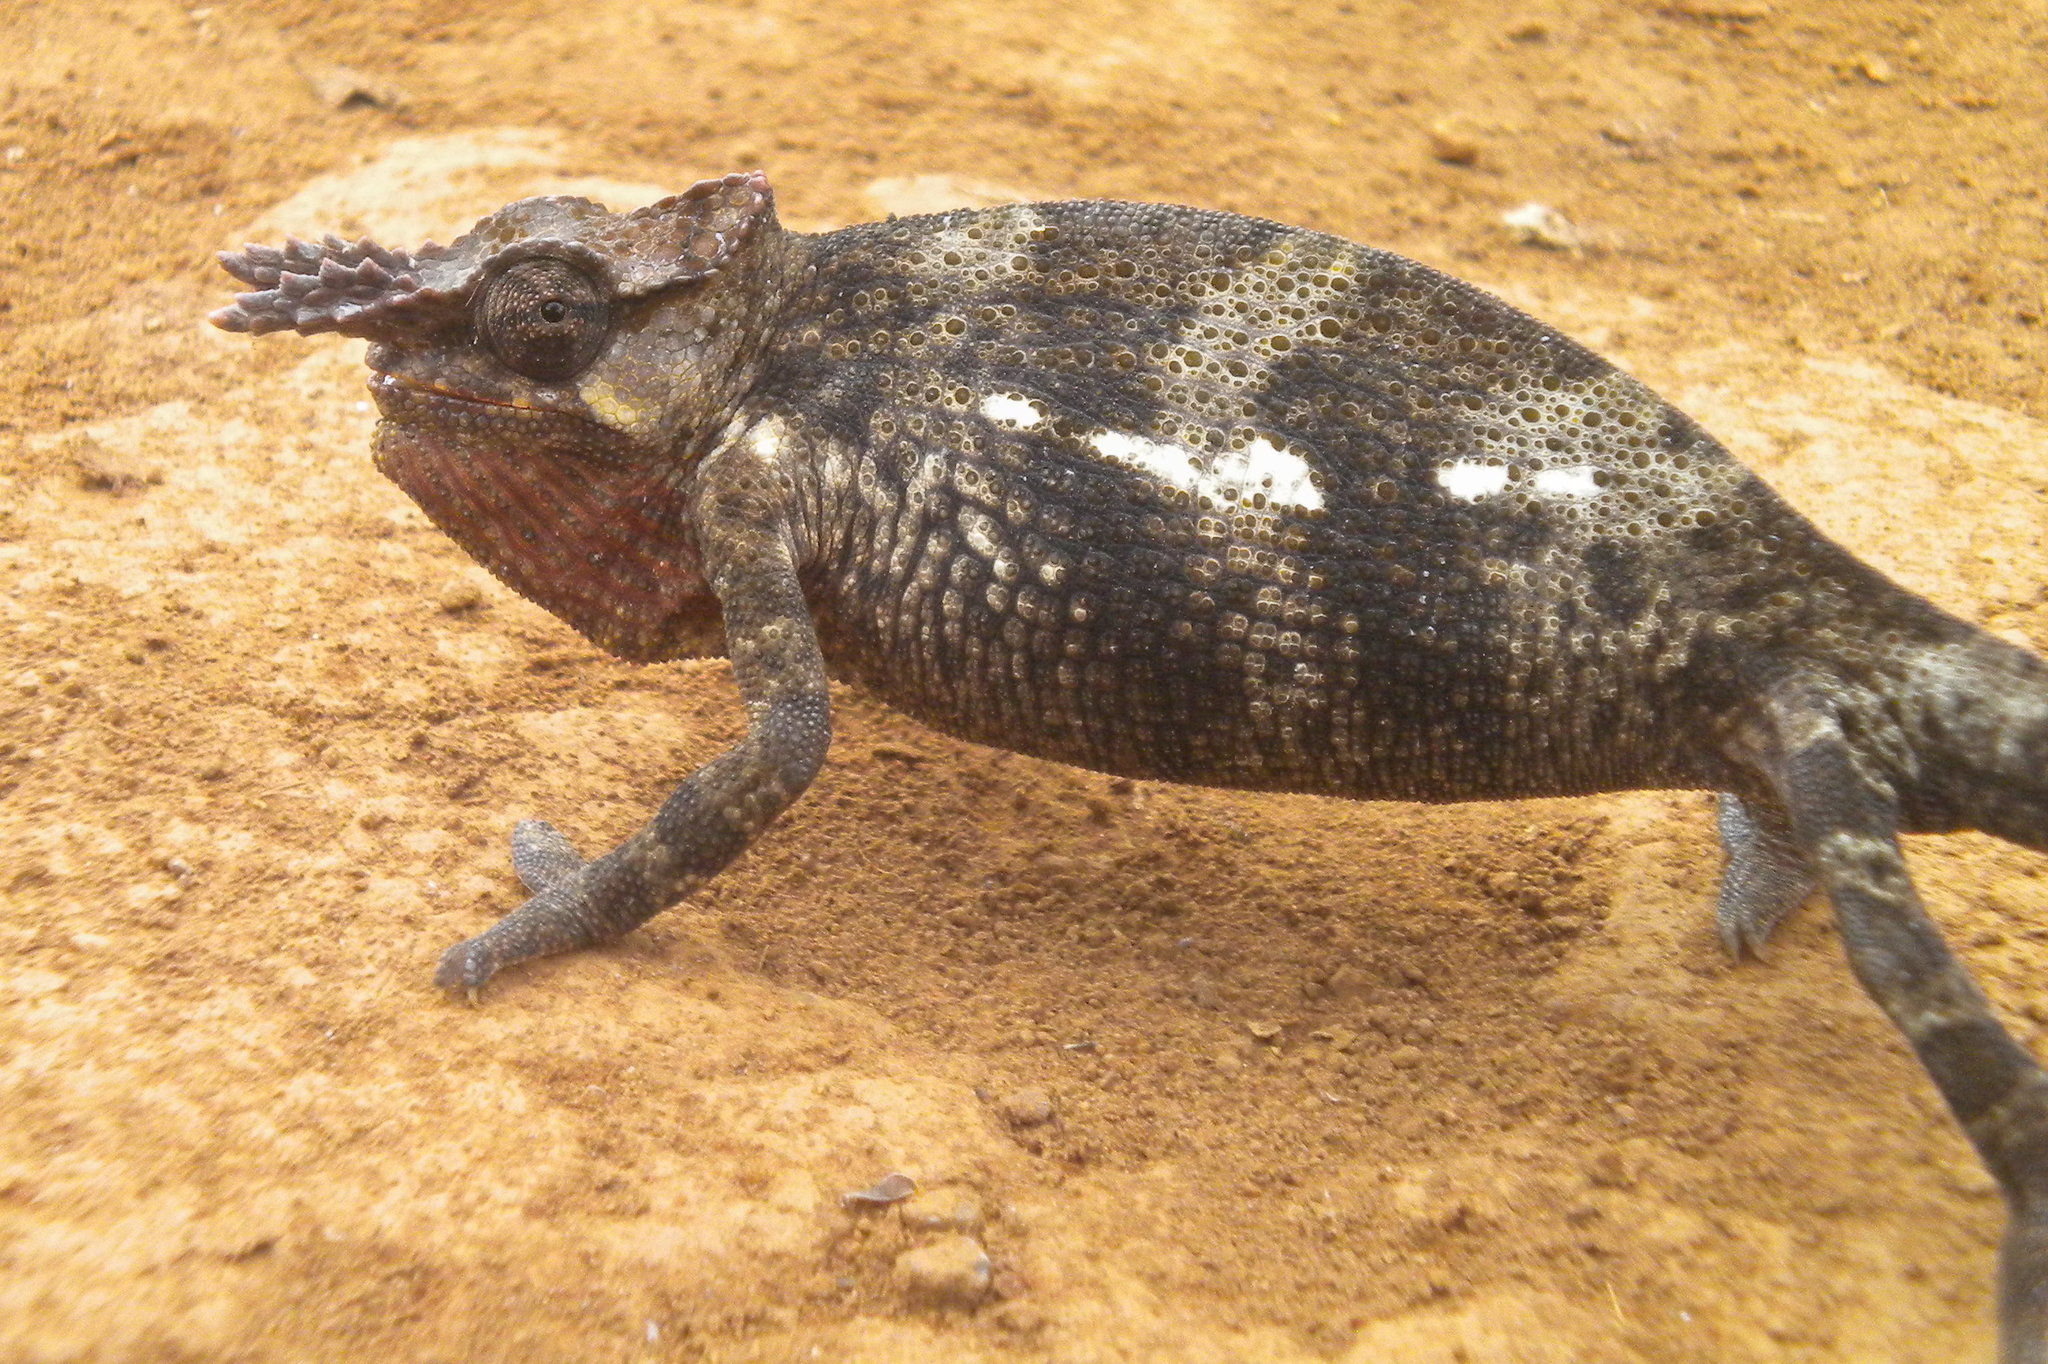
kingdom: Animalia
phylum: Chordata
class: Squamata
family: Chamaeleonidae
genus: Kinyongia
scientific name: Kinyongia tavetana
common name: Kilimanjaro blade-horned chameleon
